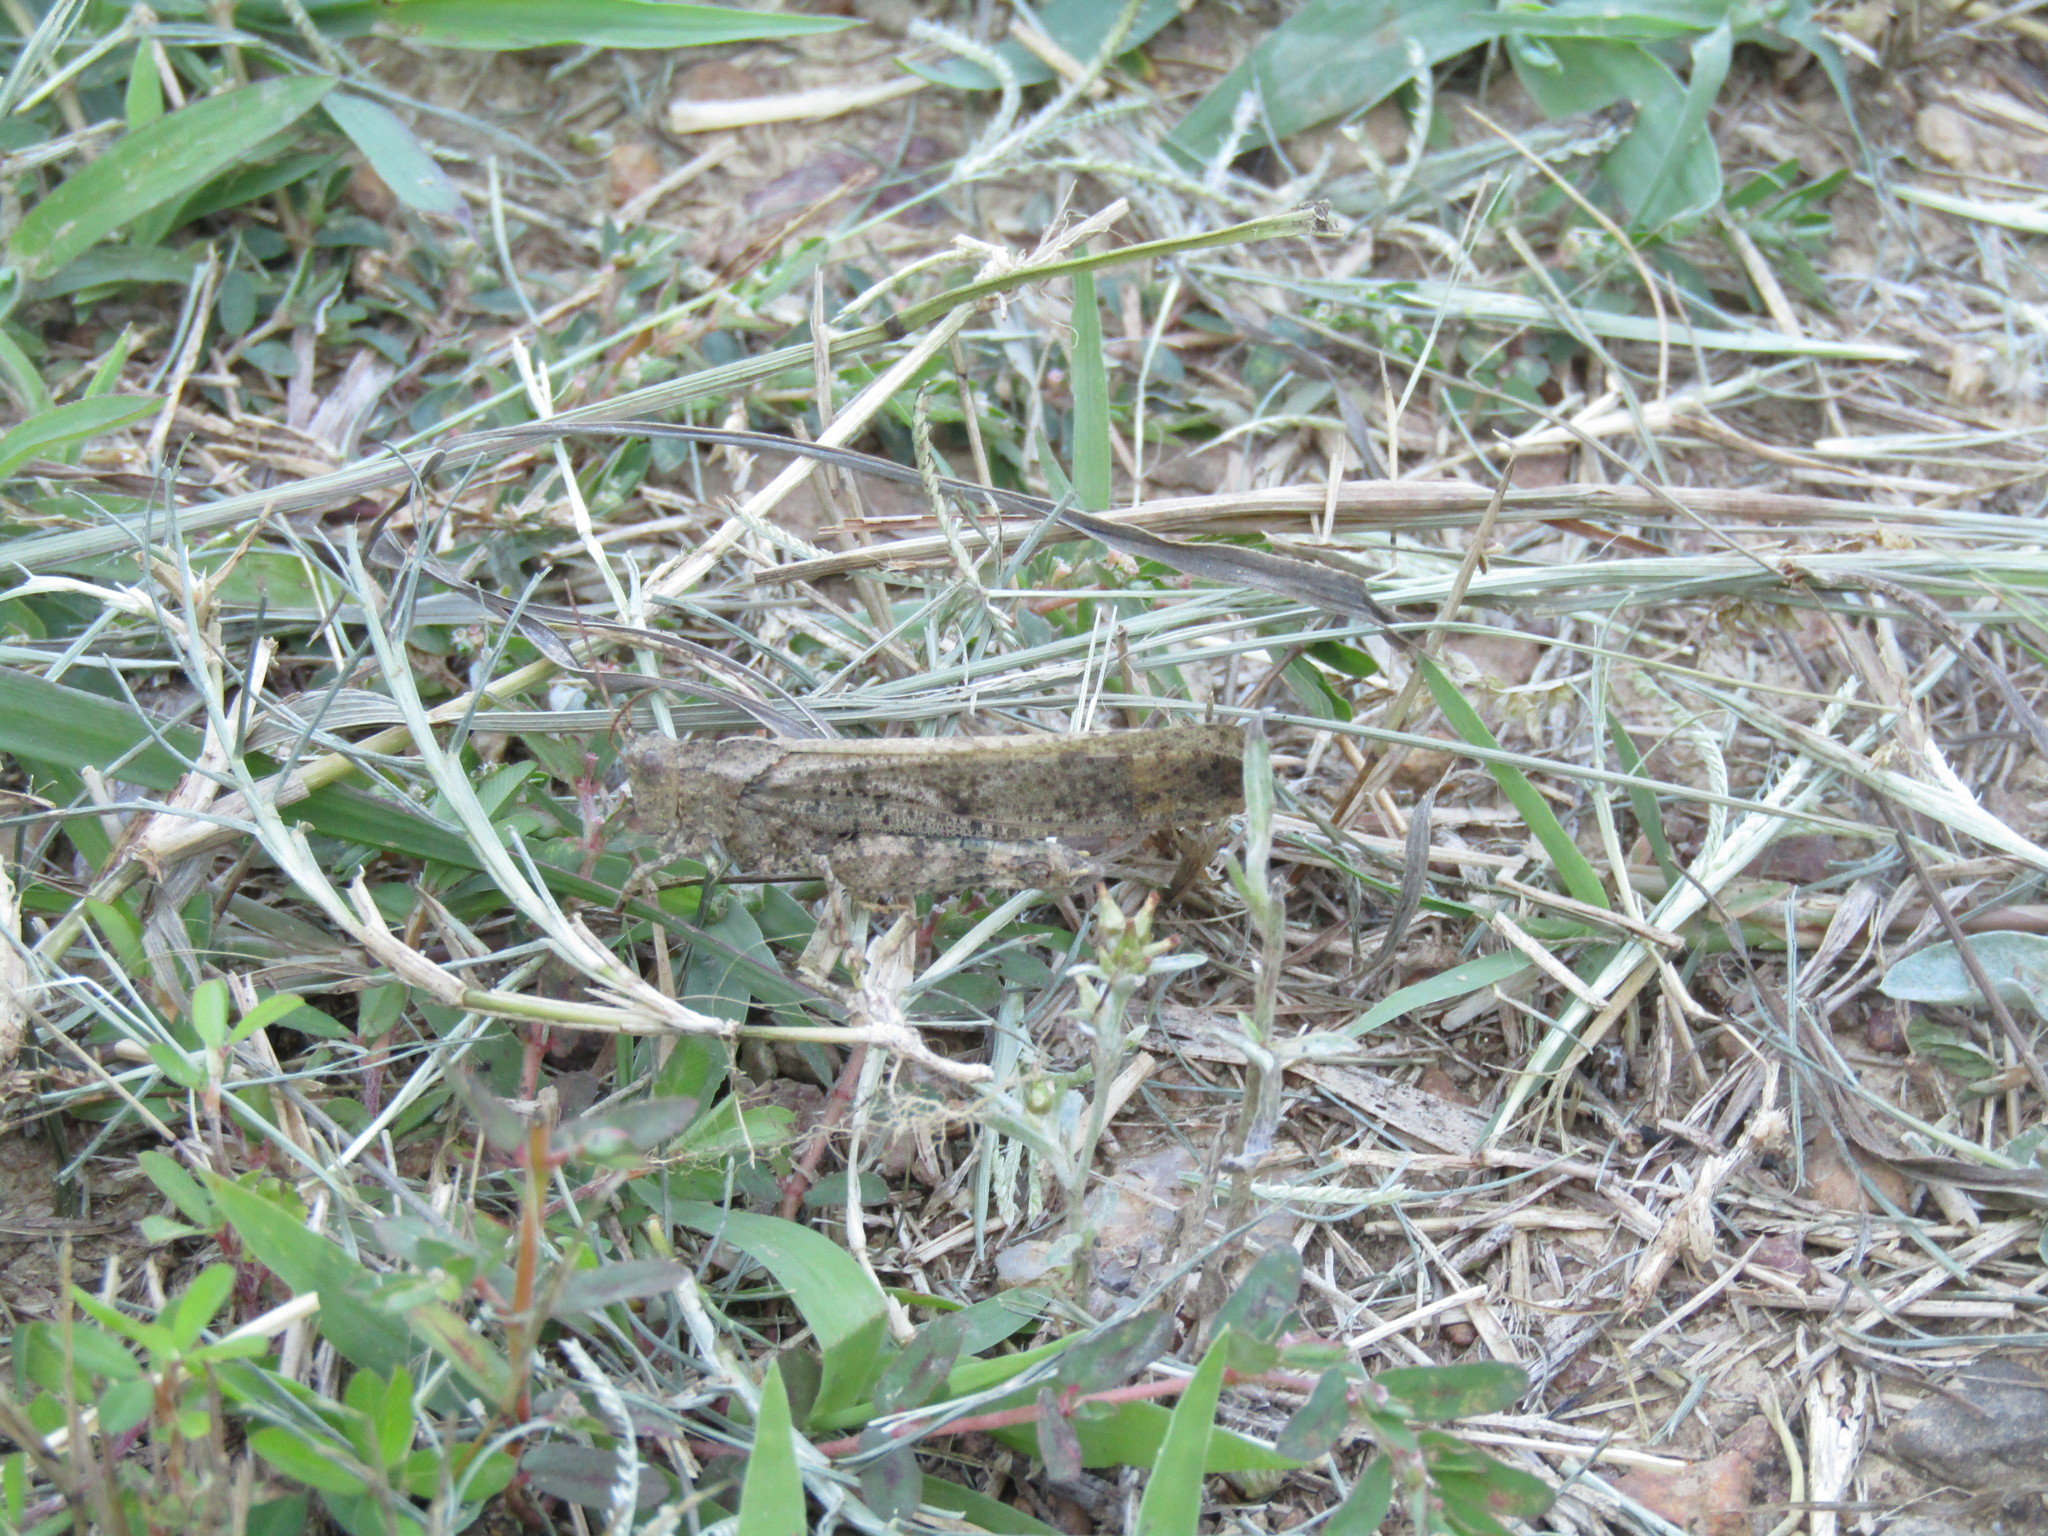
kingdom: Animalia
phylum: Arthropoda
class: Insecta
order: Orthoptera
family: Acrididae
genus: Dissosteira
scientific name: Dissosteira carolina
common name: Carolina grasshopper
